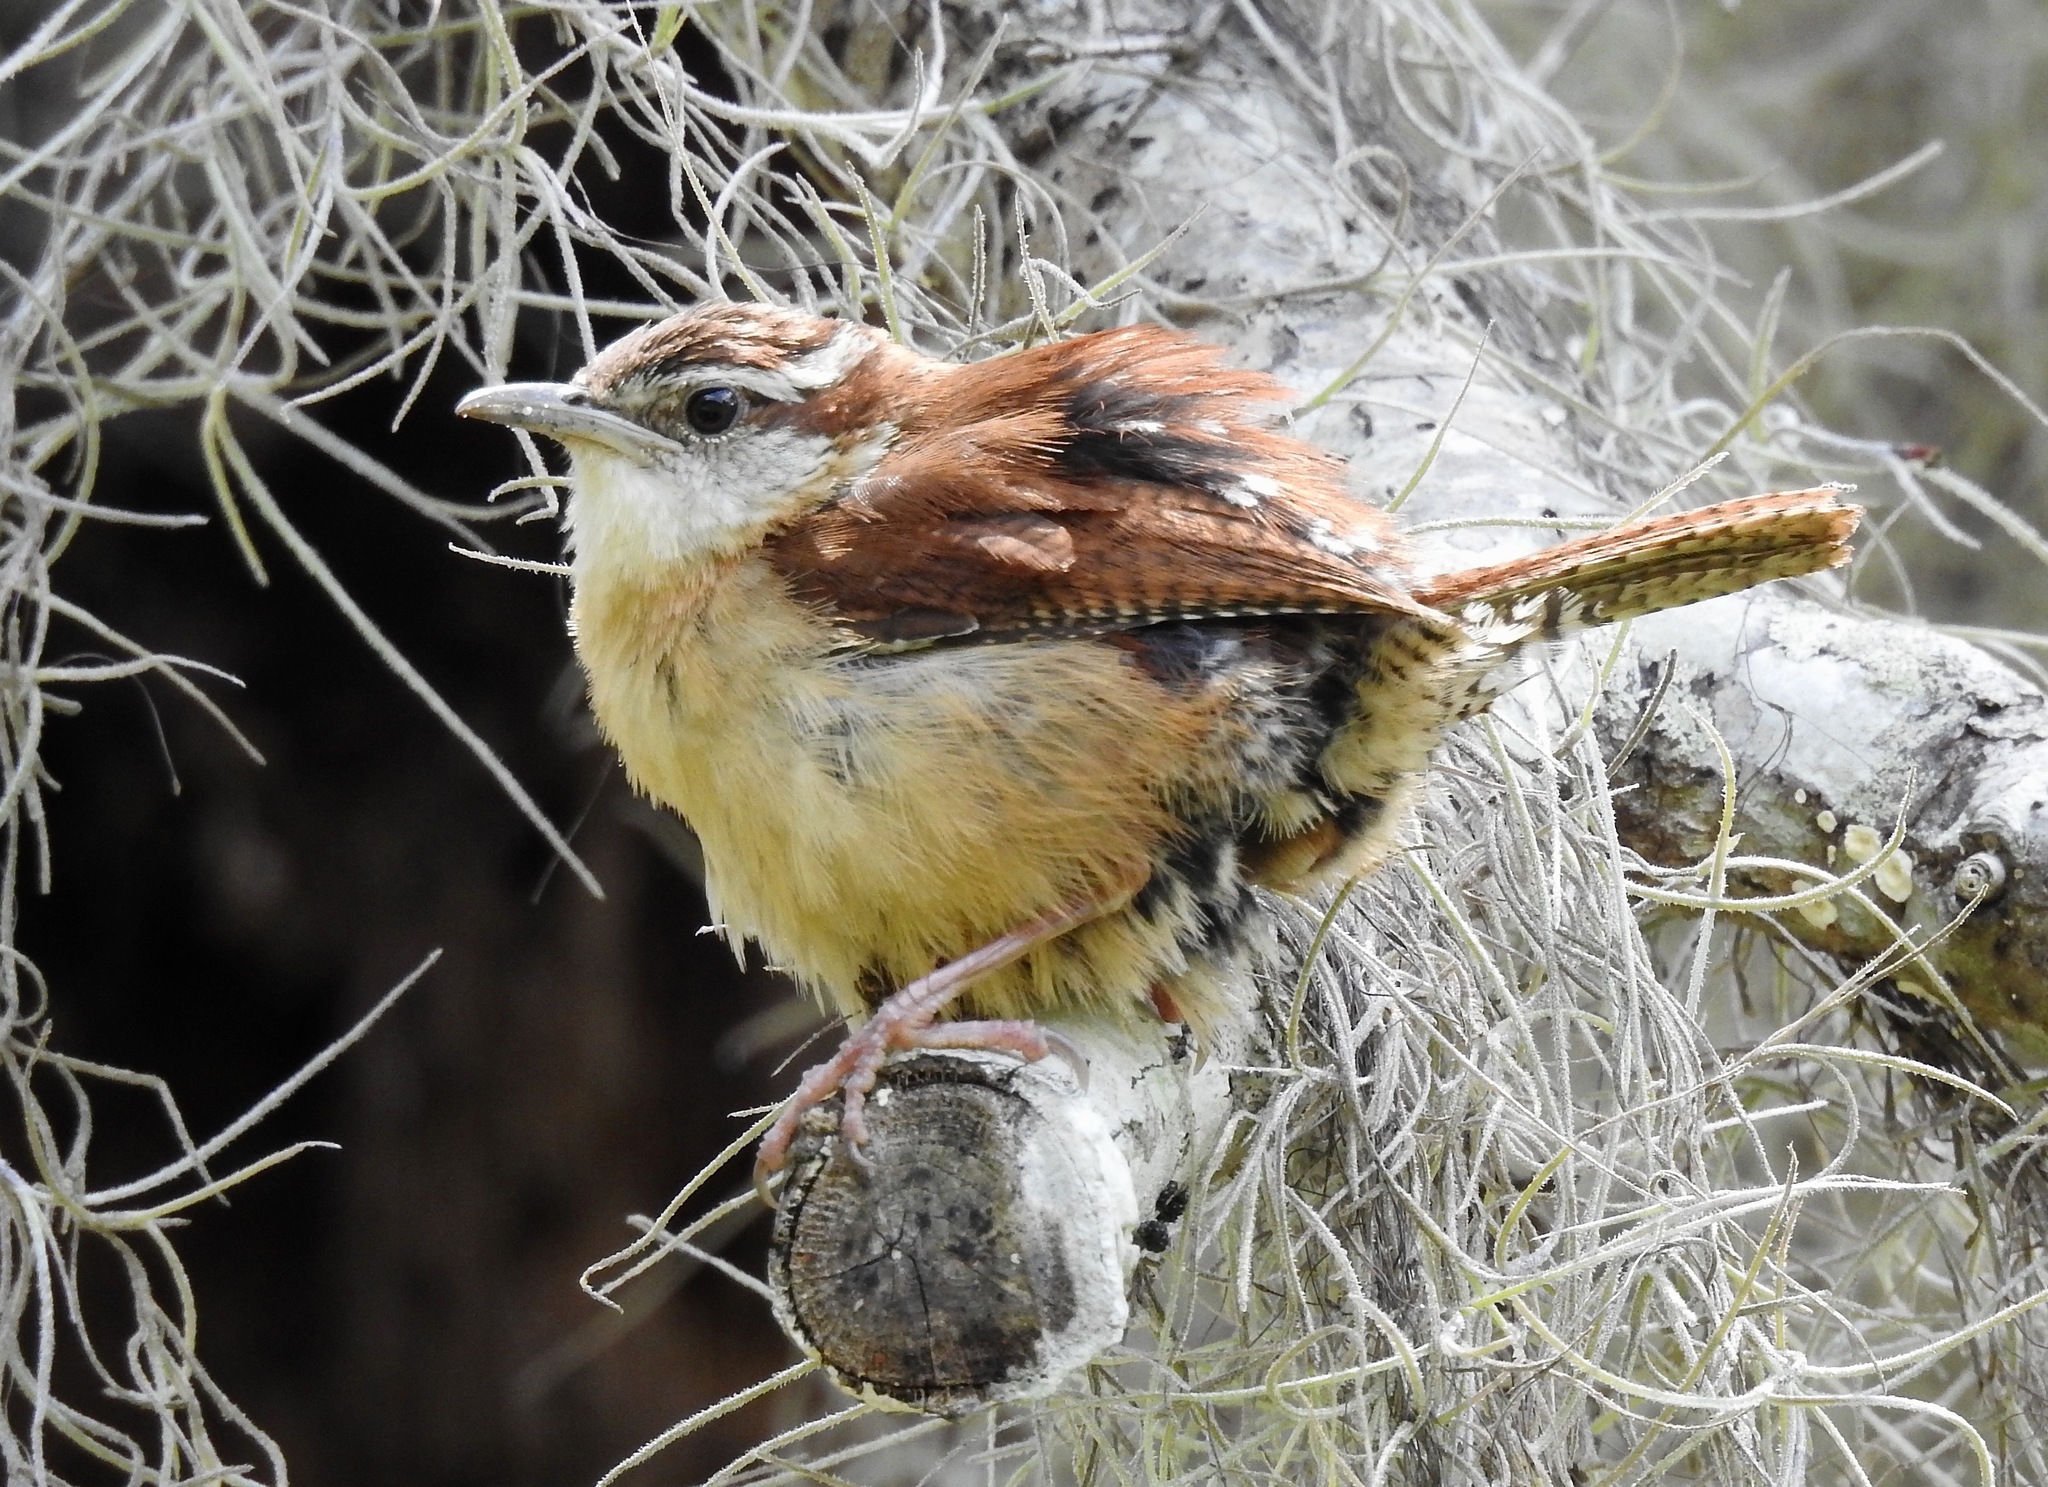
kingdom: Animalia
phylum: Chordata
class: Aves
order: Passeriformes
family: Troglodytidae
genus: Thryothorus
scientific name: Thryothorus ludovicianus
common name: Carolina wren
